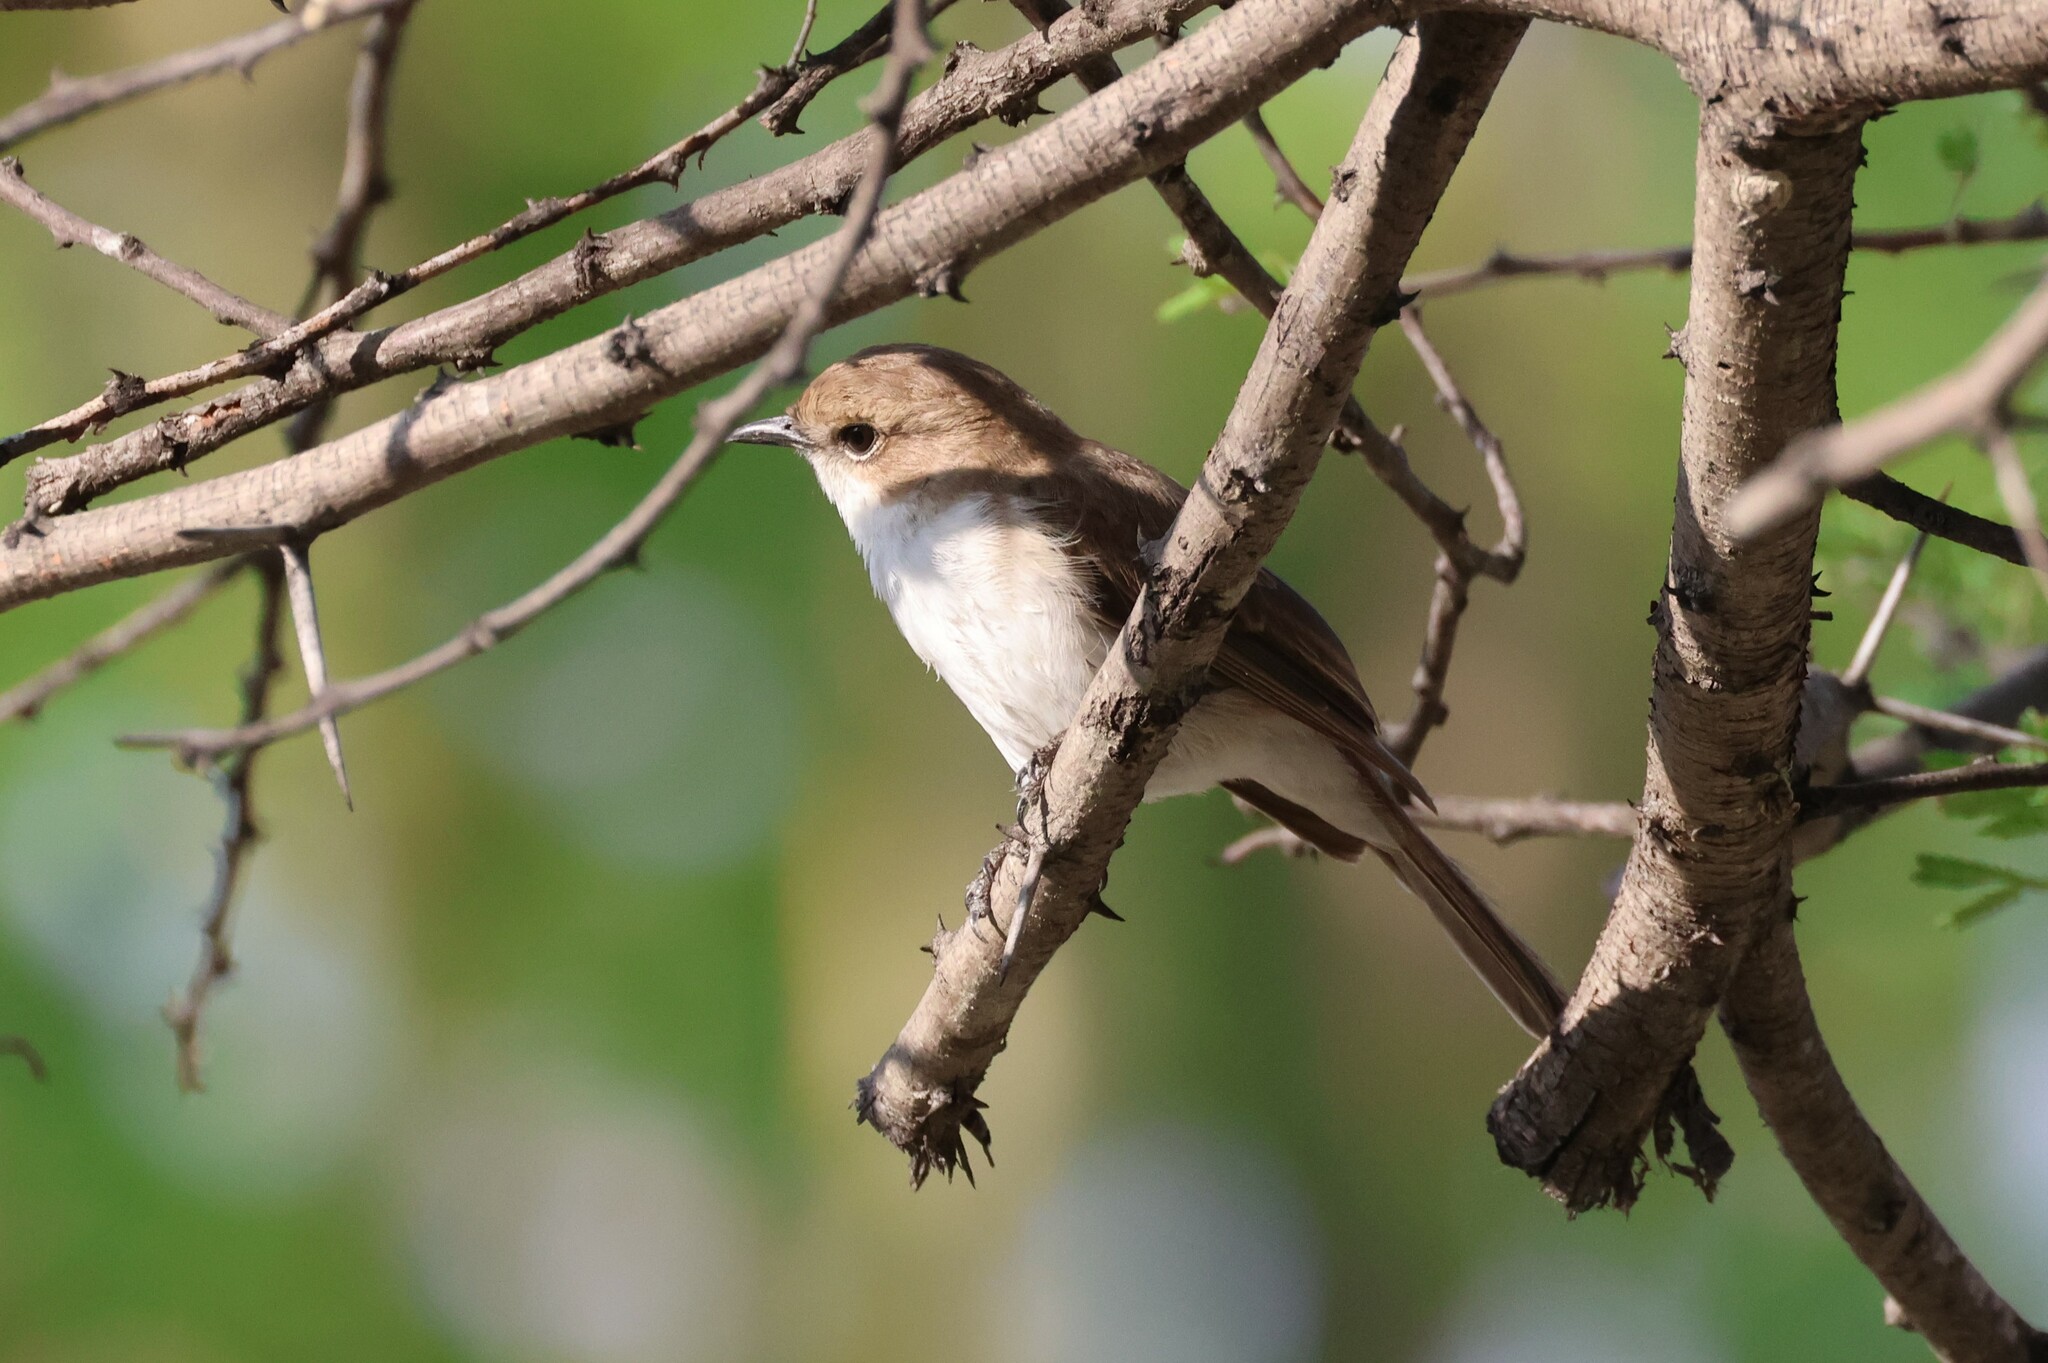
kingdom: Animalia
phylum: Chordata
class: Aves
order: Passeriformes
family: Muscicapidae
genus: Bradornis
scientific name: Bradornis mariquensis
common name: Marico flycatcher
